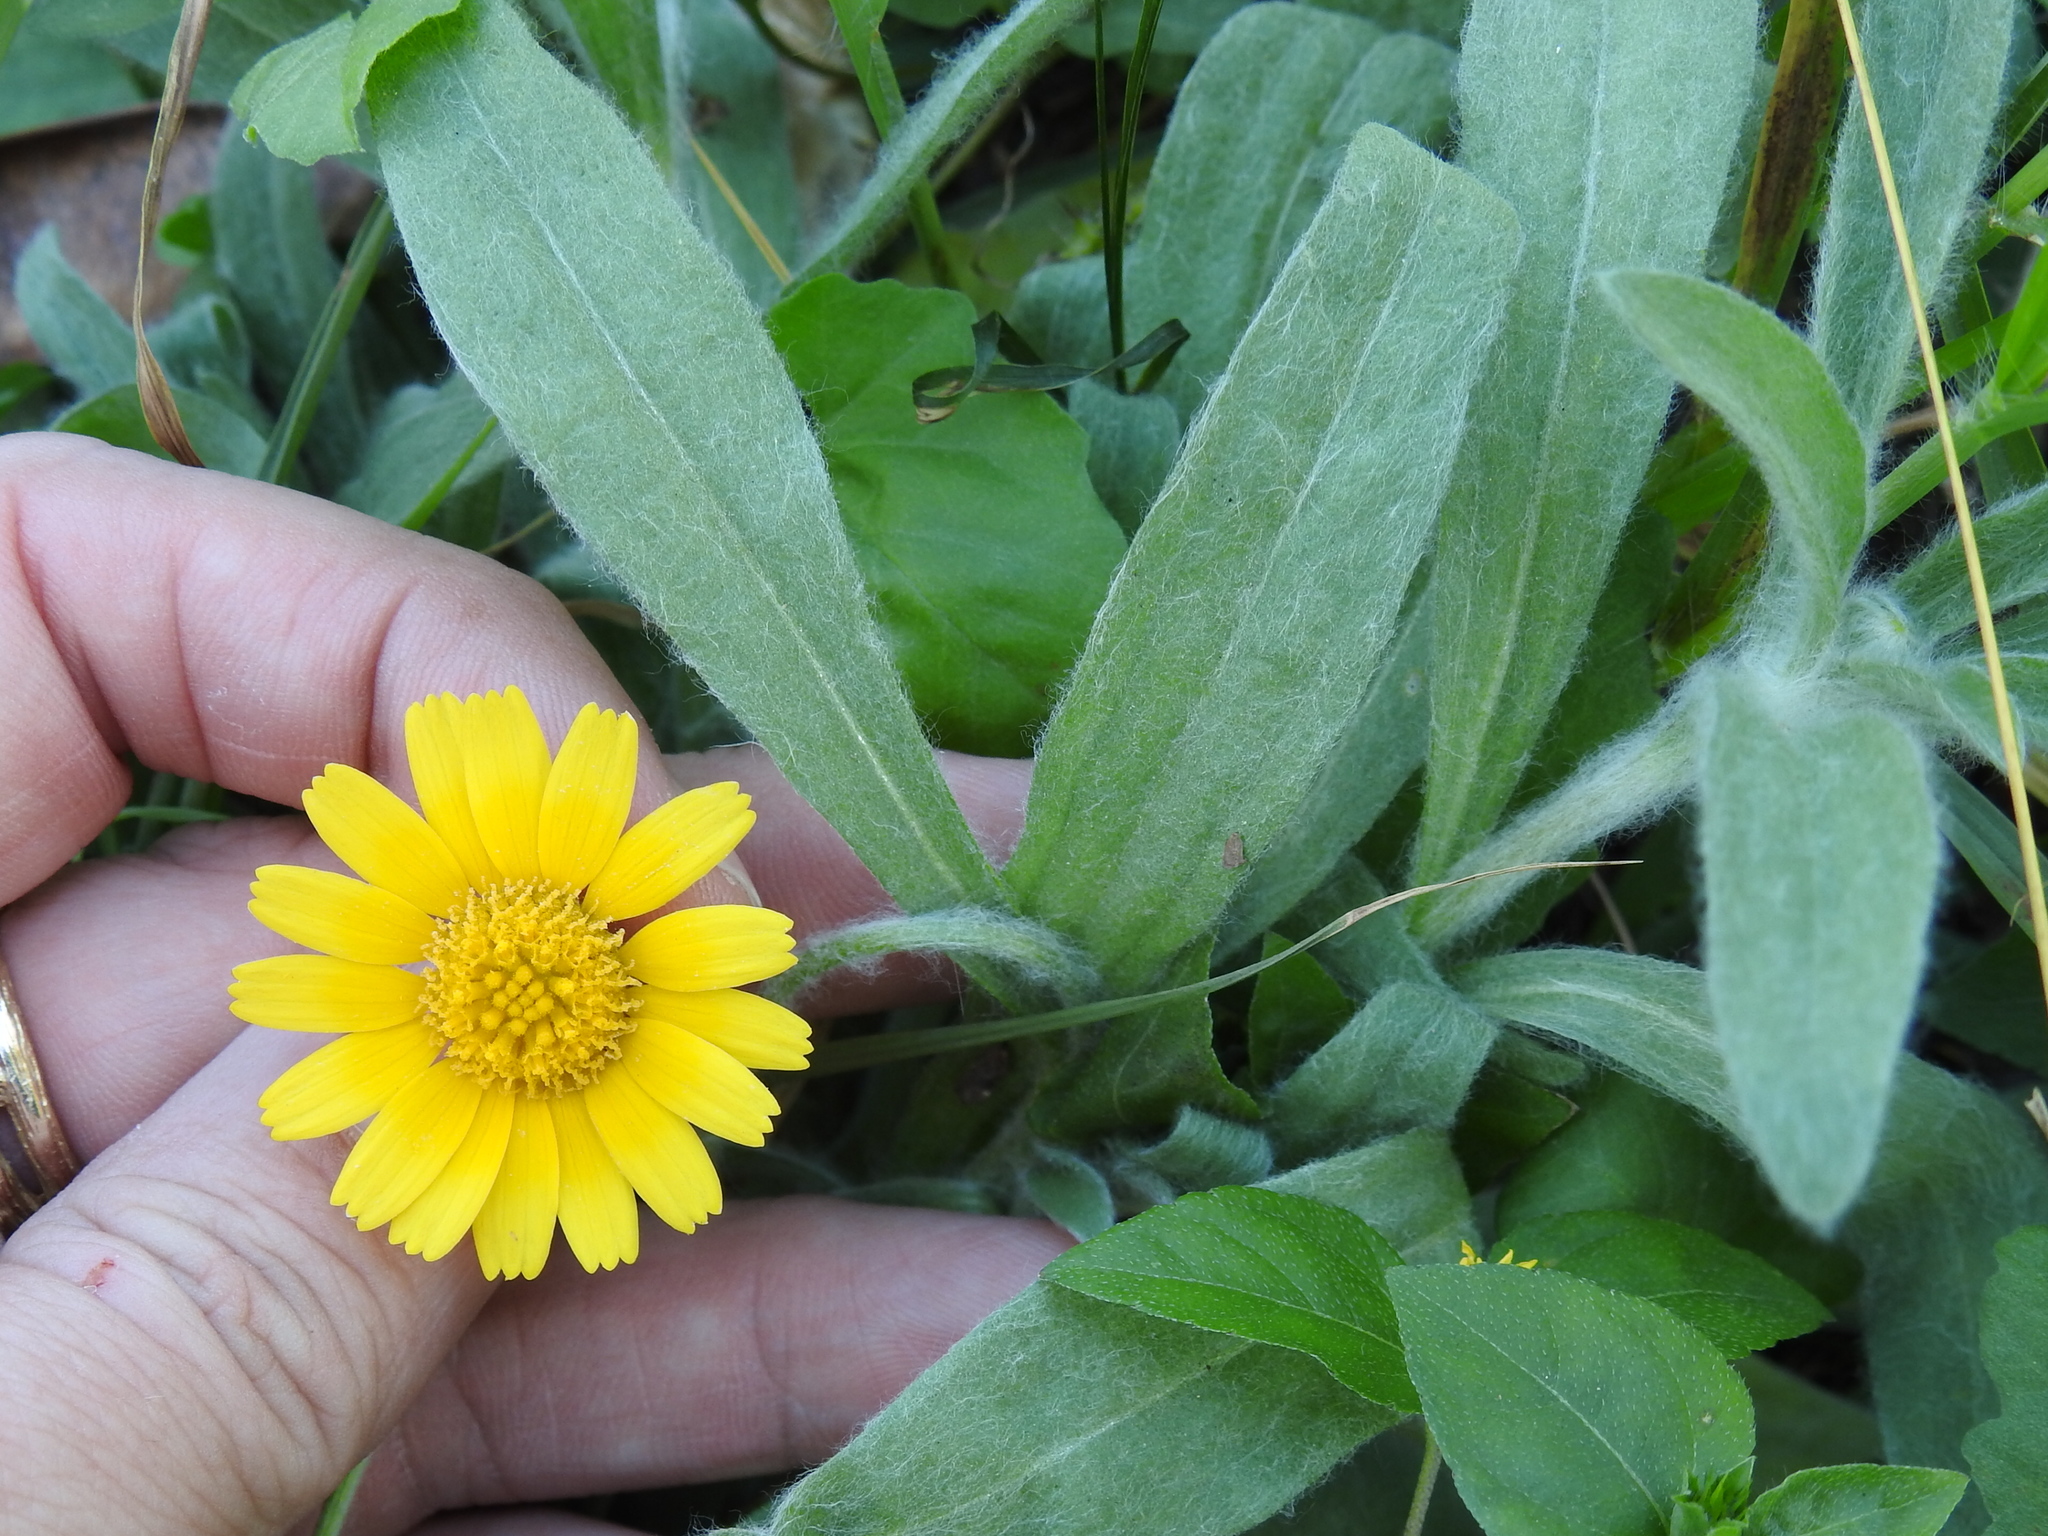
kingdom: Plantae
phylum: Tracheophyta
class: Magnoliopsida
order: Asterales
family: Asteraceae
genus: Tetraneuris
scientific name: Tetraneuris scaposa
